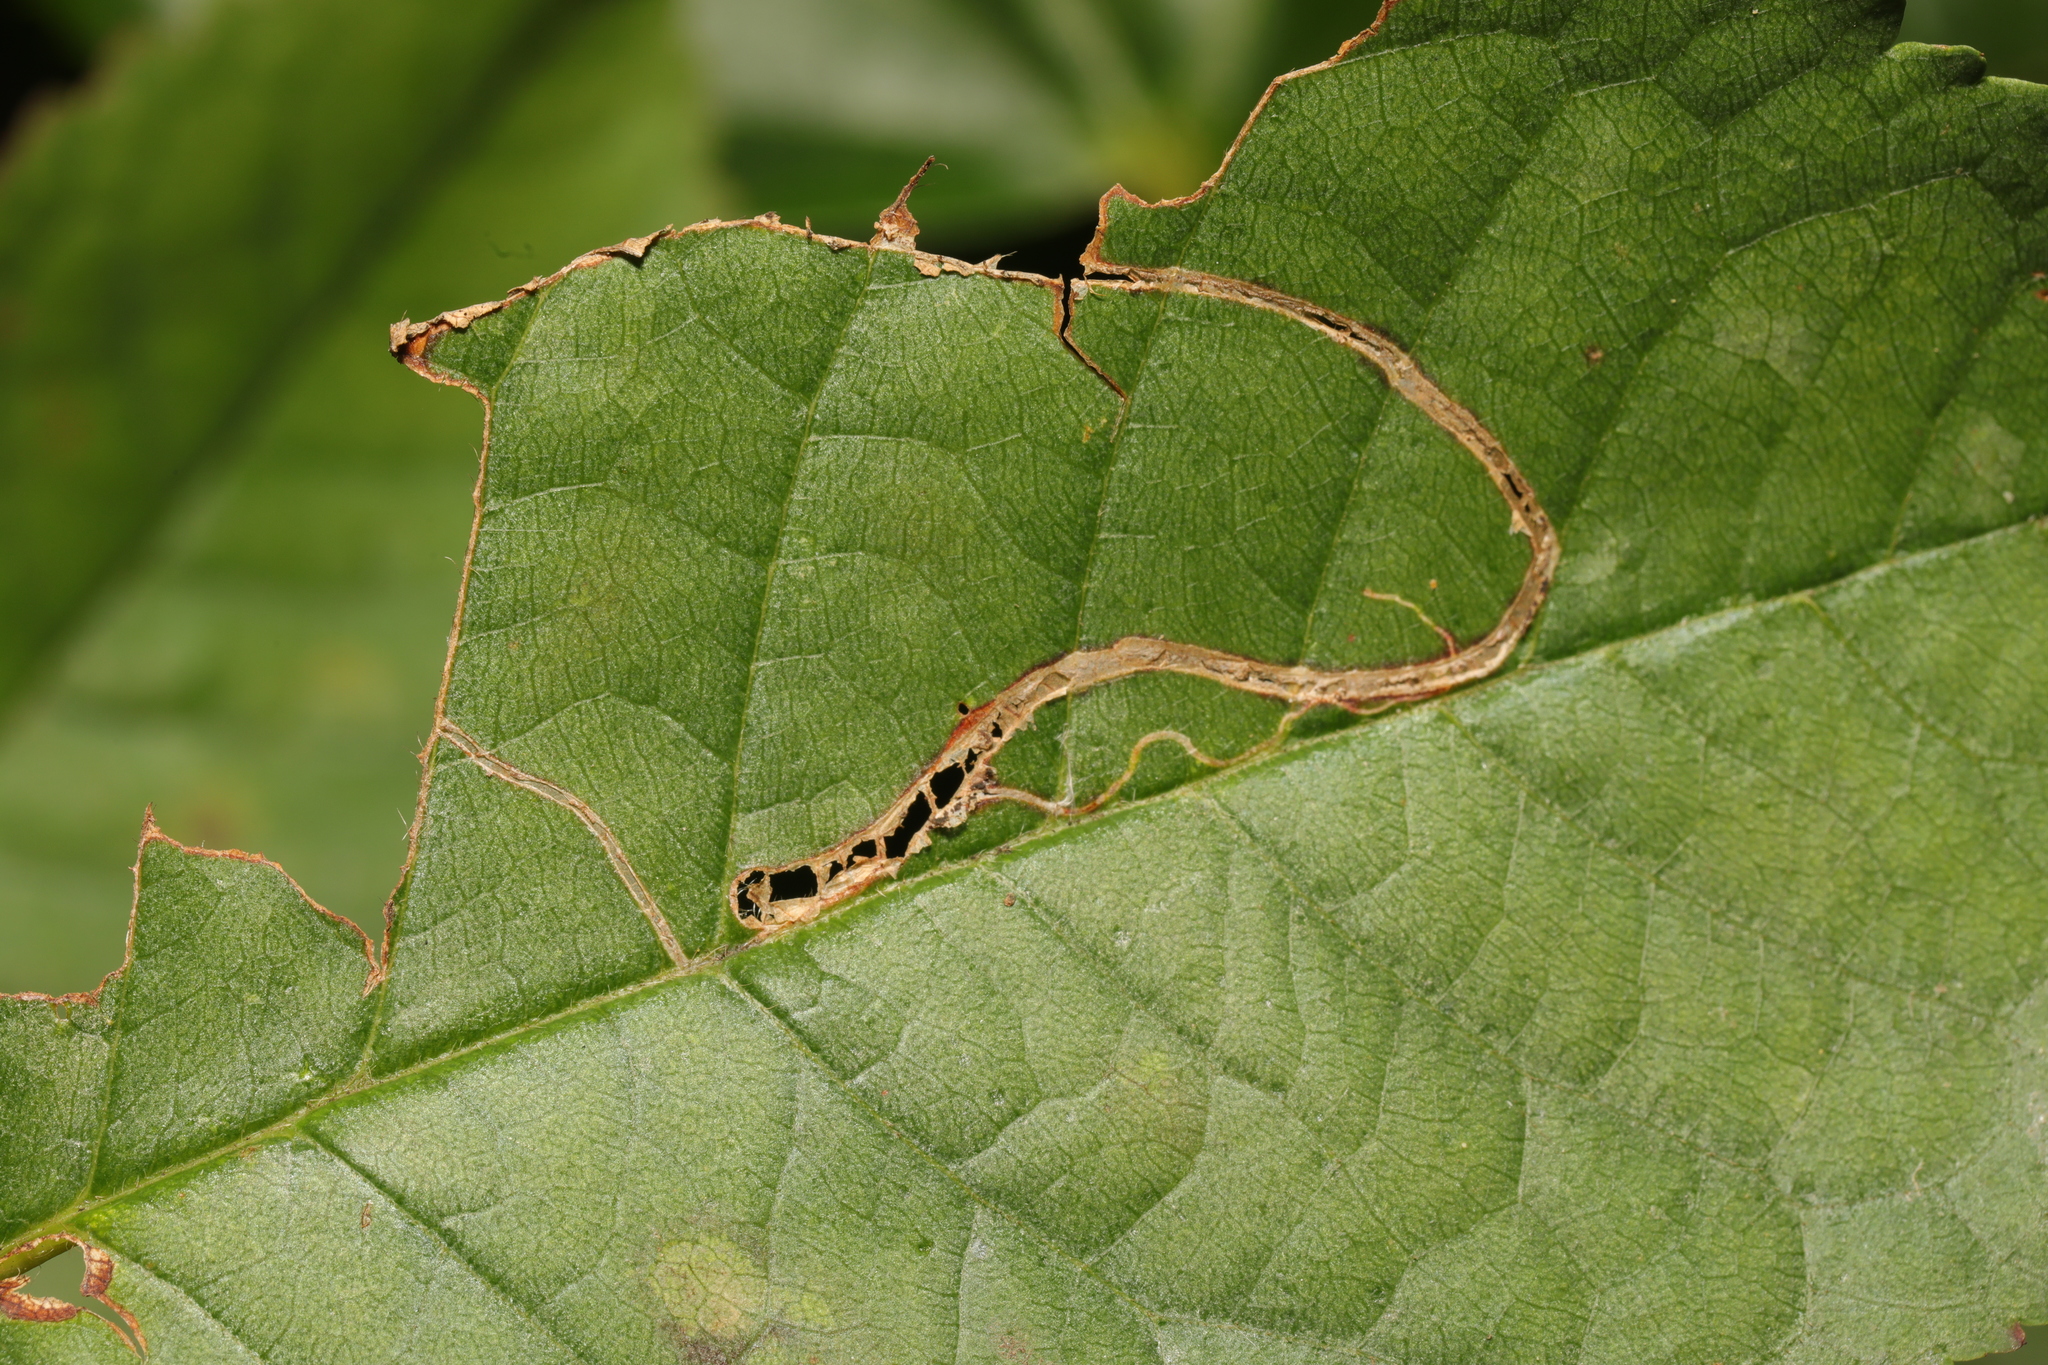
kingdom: Animalia
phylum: Arthropoda
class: Insecta
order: Lepidoptera
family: Lyonetiidae
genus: Lyonetia
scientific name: Lyonetia clerkella
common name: Apple leaf miner
